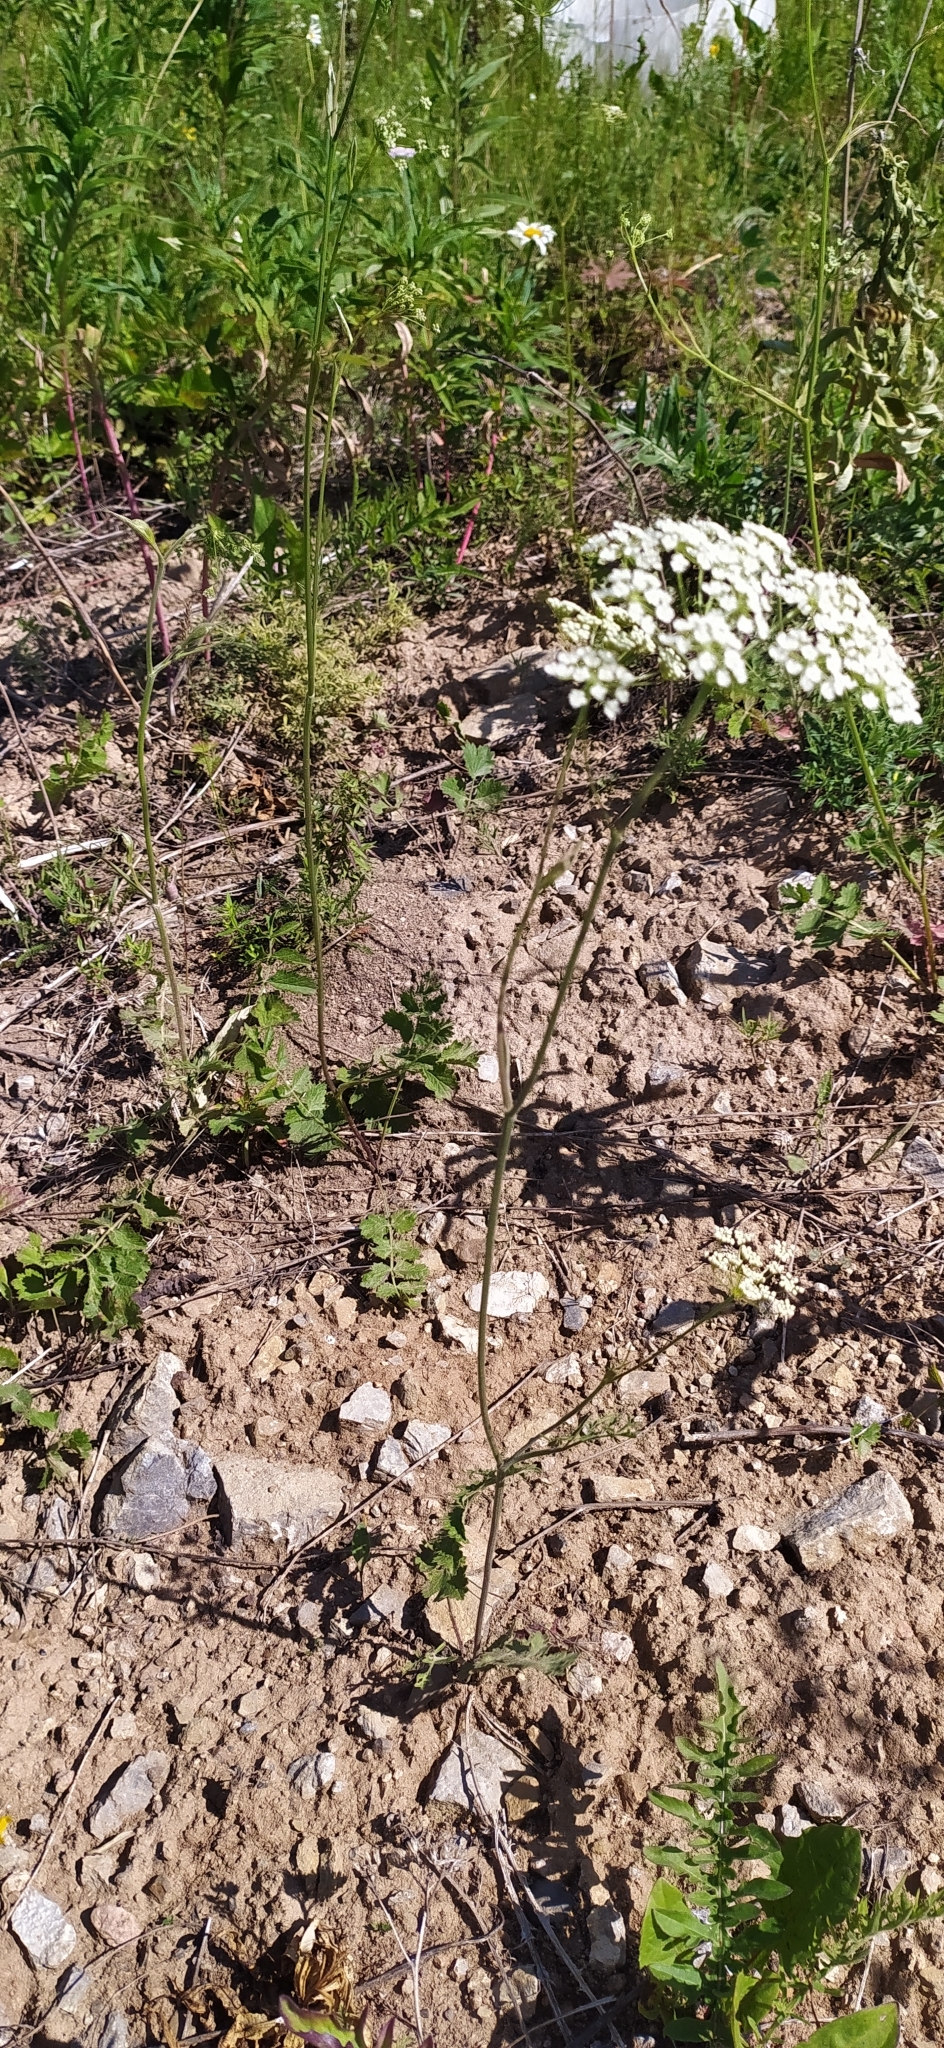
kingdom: Plantae
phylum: Tracheophyta
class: Magnoliopsida
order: Apiales
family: Apiaceae
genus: Pimpinella
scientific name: Pimpinella saxifraga
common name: Burnet-saxifrage
